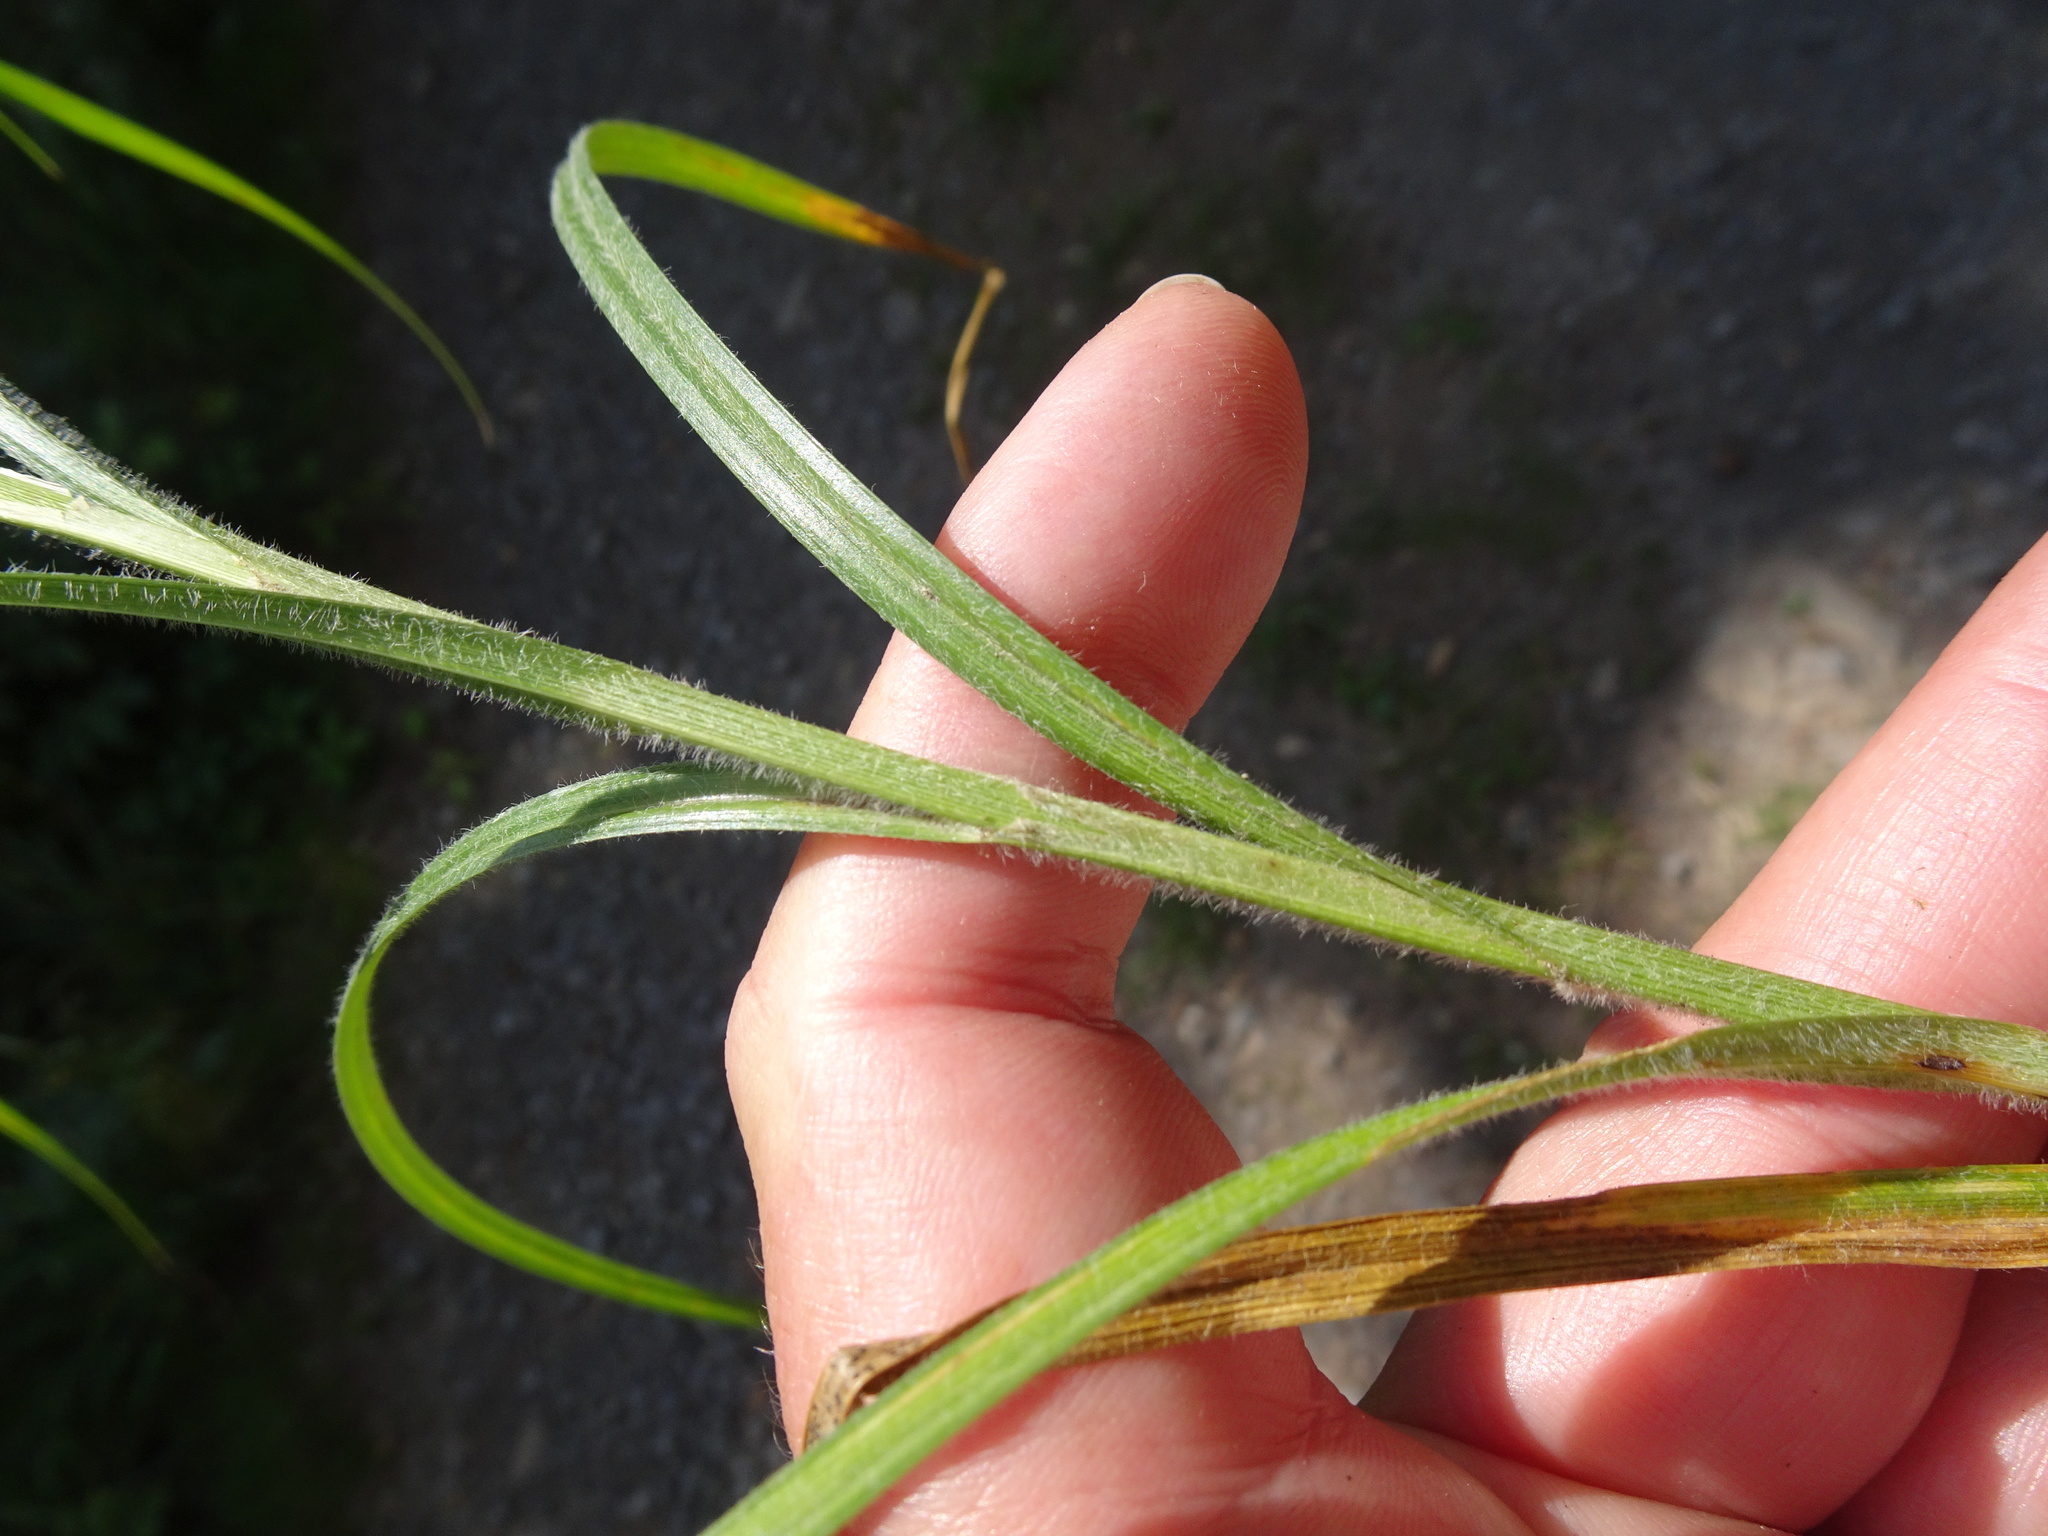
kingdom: Plantae
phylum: Tracheophyta
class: Liliopsida
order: Poales
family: Cyperaceae
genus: Carex
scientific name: Carex hirta
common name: Hairy sedge
